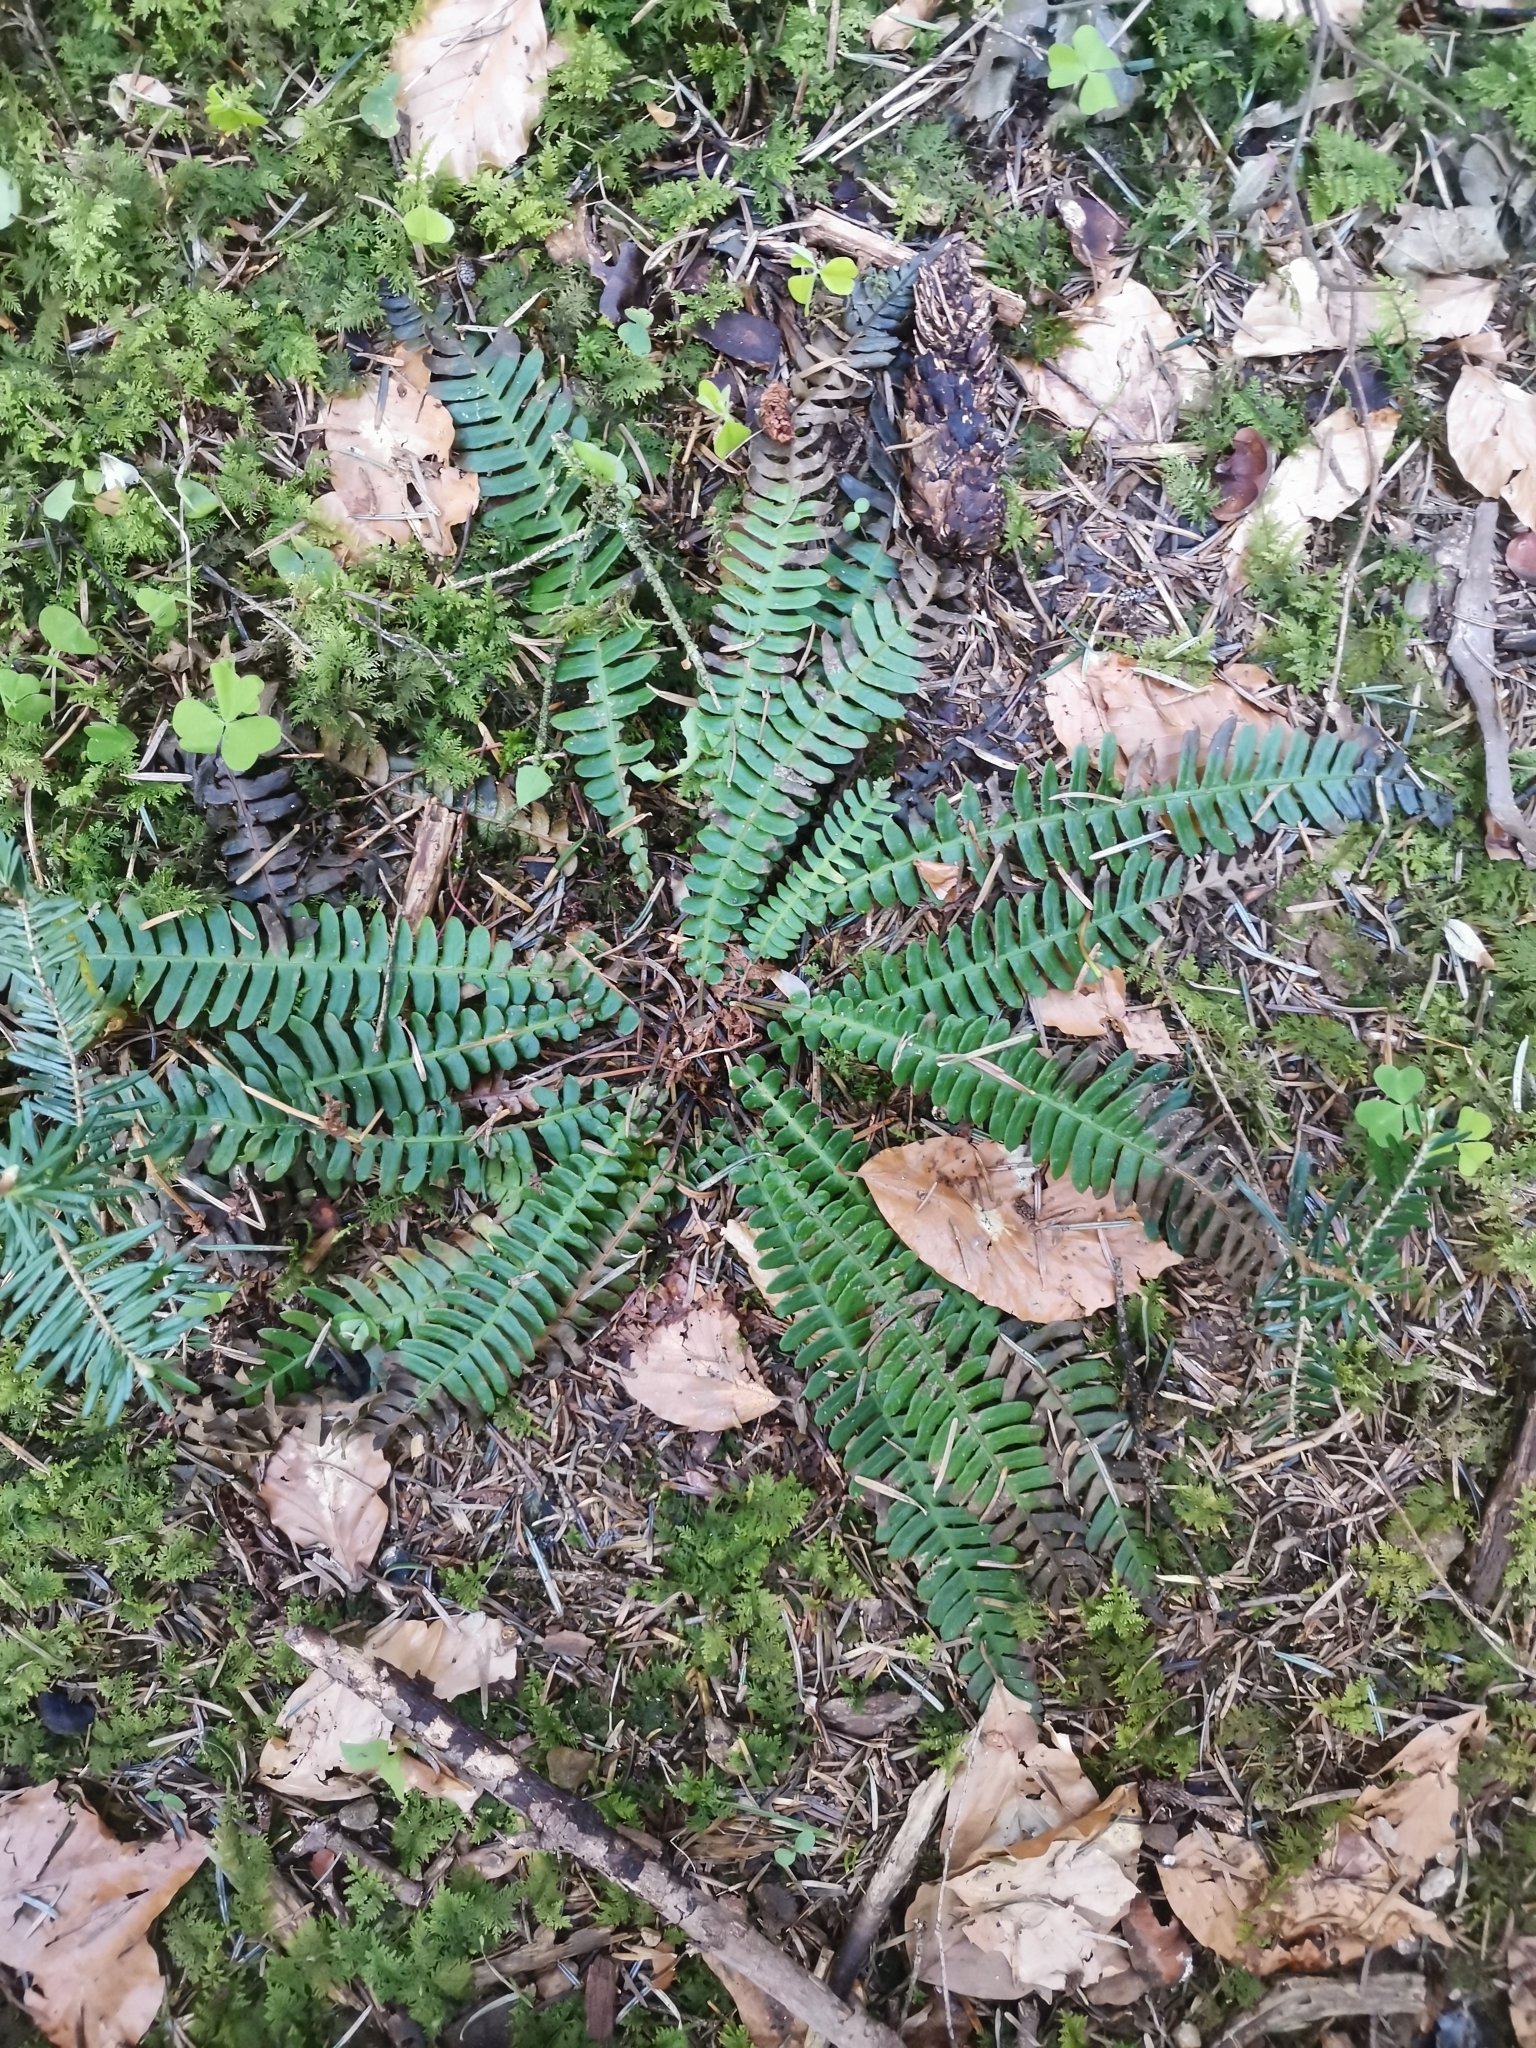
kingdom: Plantae
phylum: Tracheophyta
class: Polypodiopsida
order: Polypodiales
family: Blechnaceae
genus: Struthiopteris
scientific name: Struthiopteris spicant
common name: Deer fern
